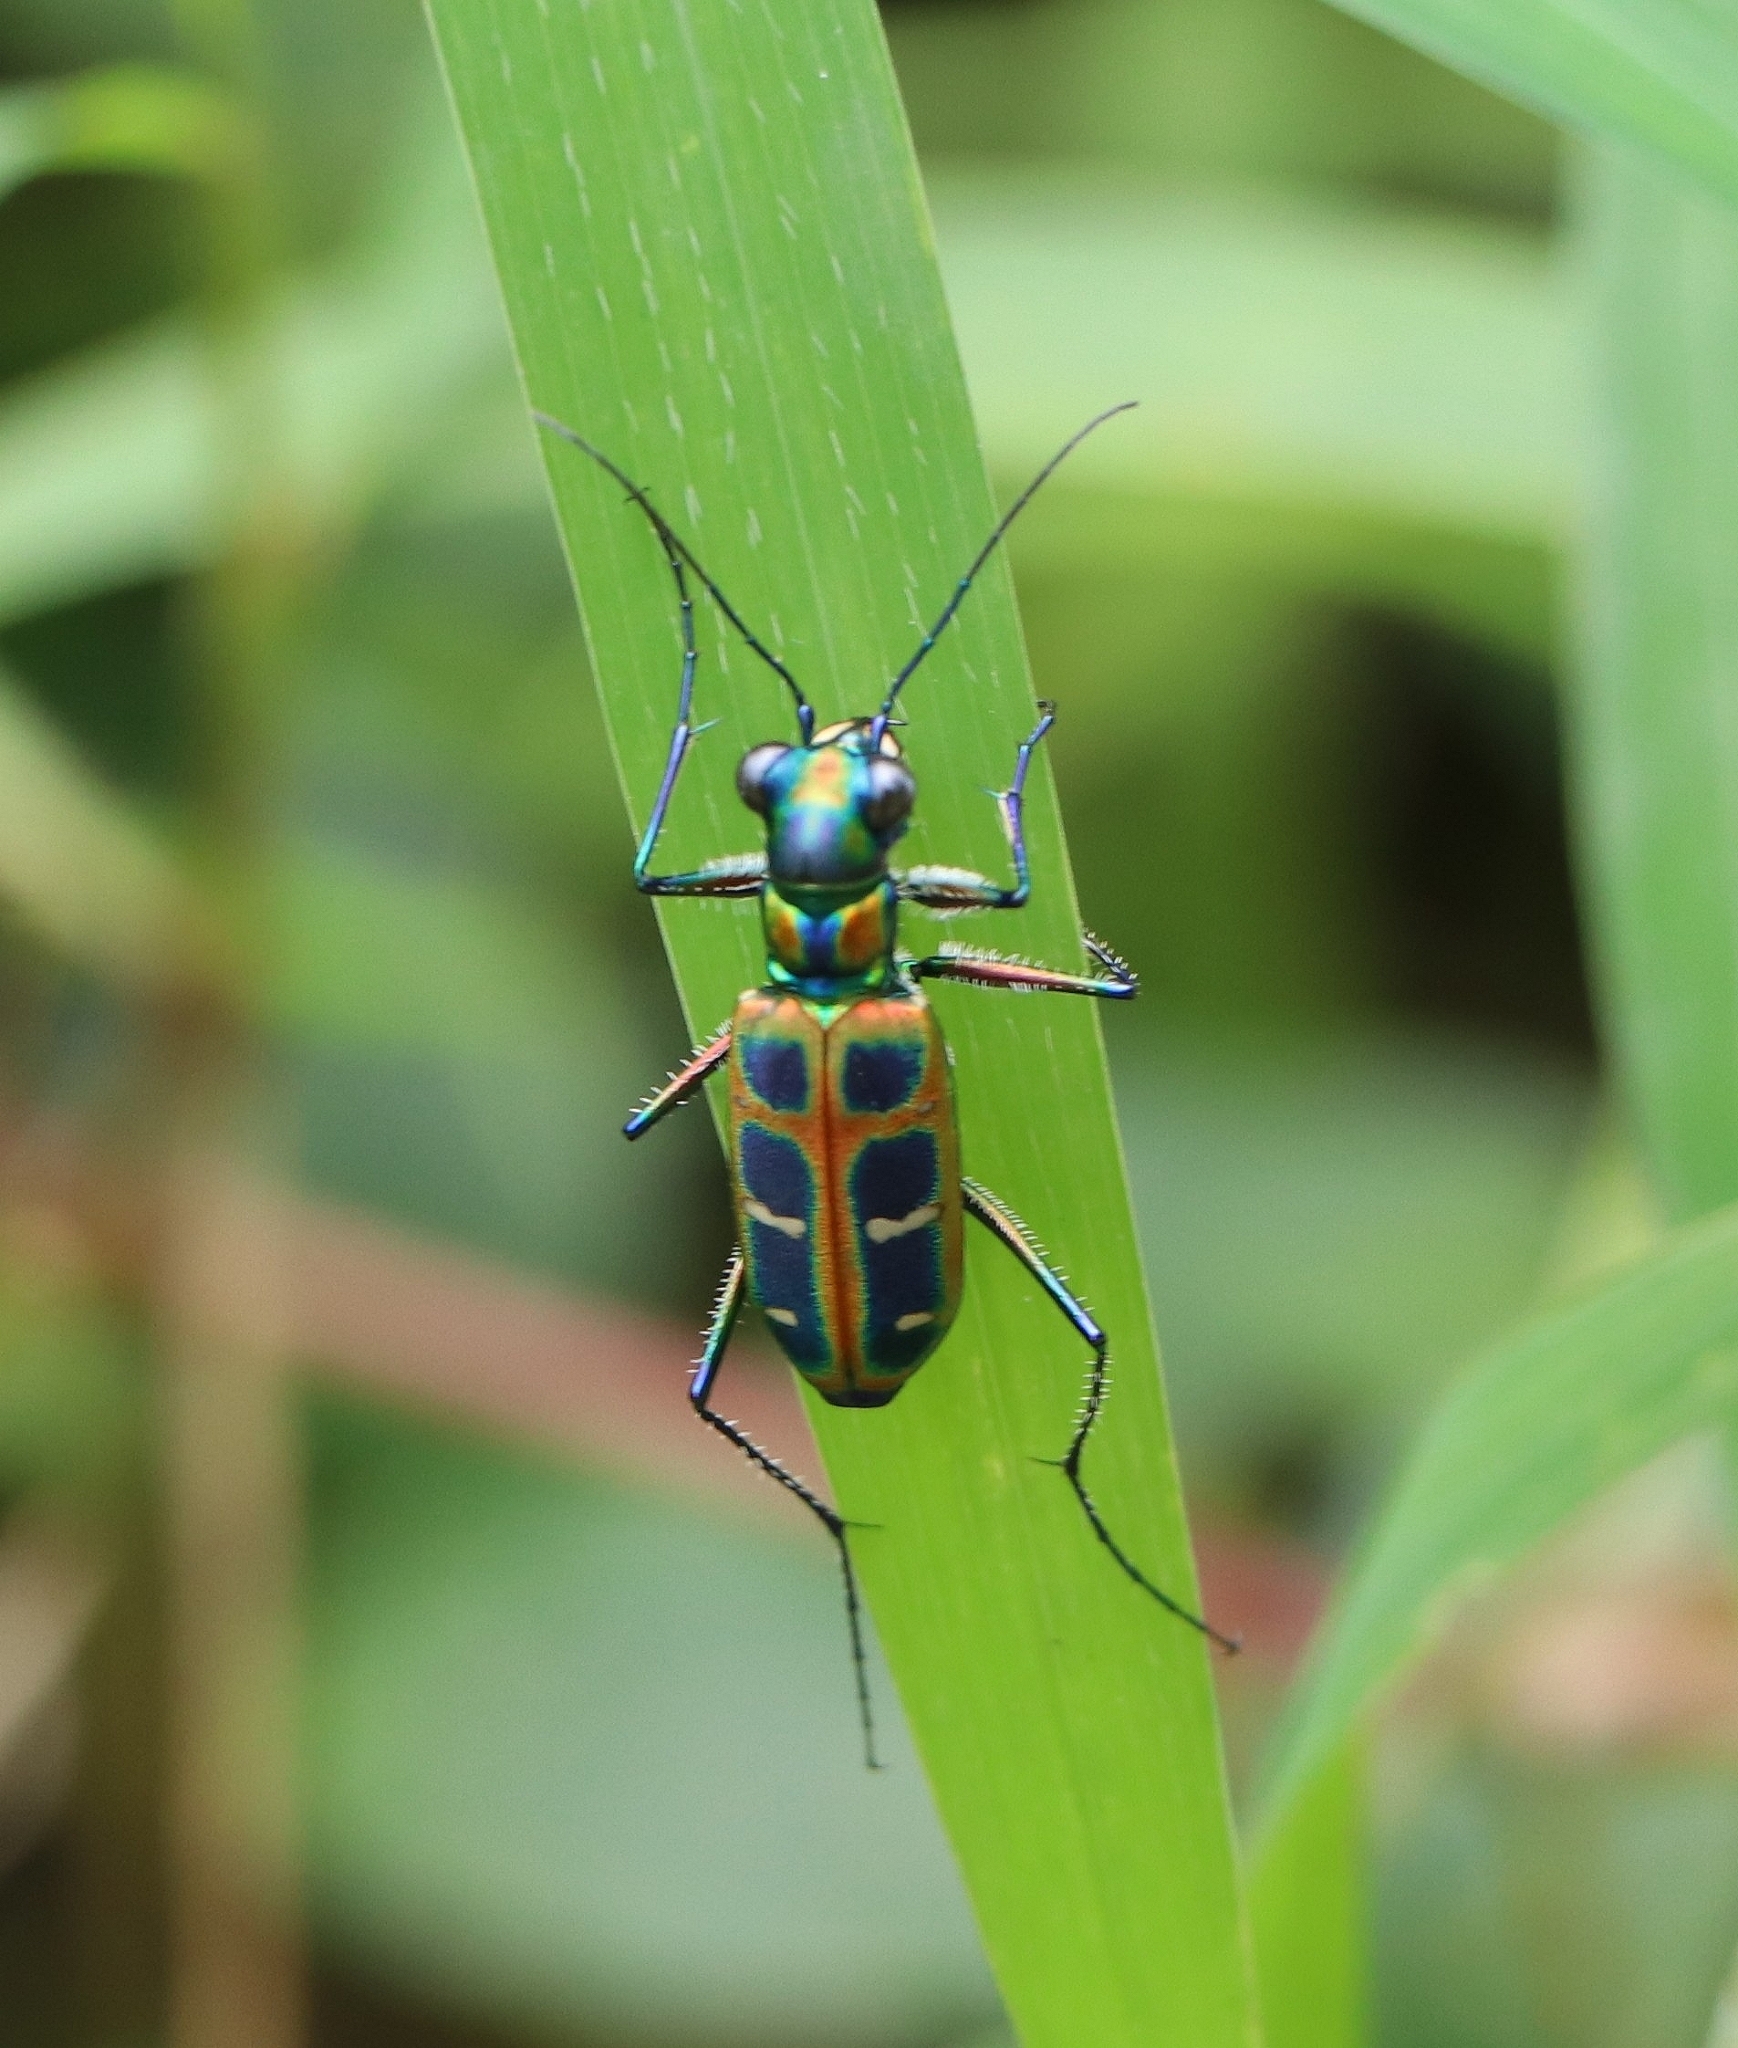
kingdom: Animalia
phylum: Arthropoda
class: Insecta
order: Coleoptera
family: Carabidae
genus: Cicindela
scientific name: Cicindela barmanica
